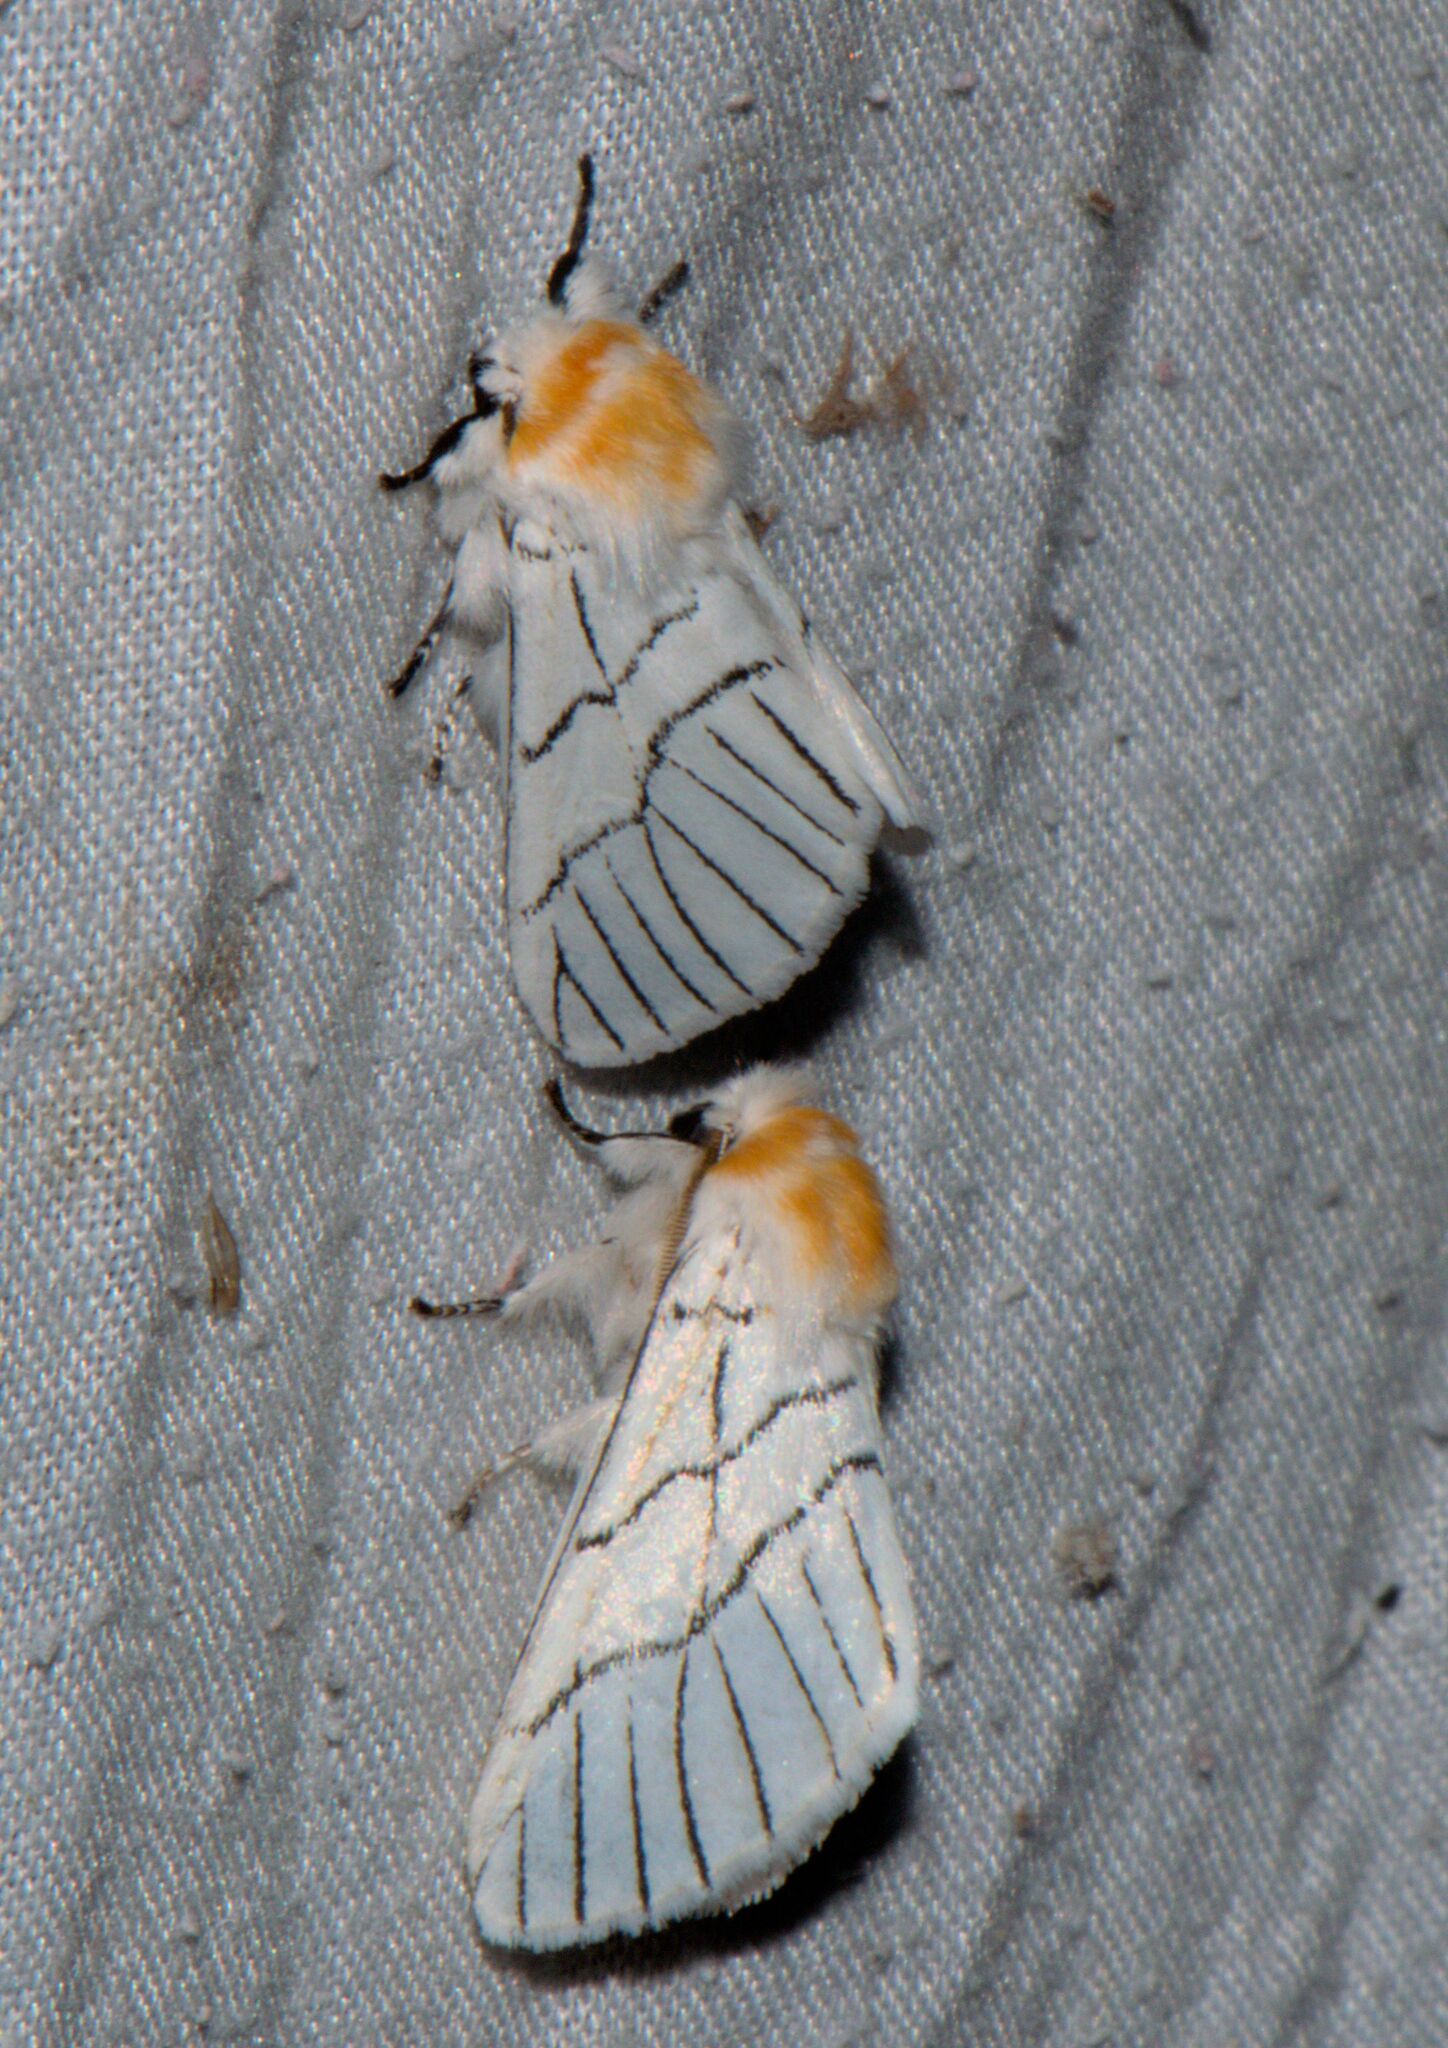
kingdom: Animalia
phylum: Arthropoda
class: Insecta
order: Lepidoptera
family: Notodontidae
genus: Oligoclona
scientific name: Oligoclona chrysolopha
